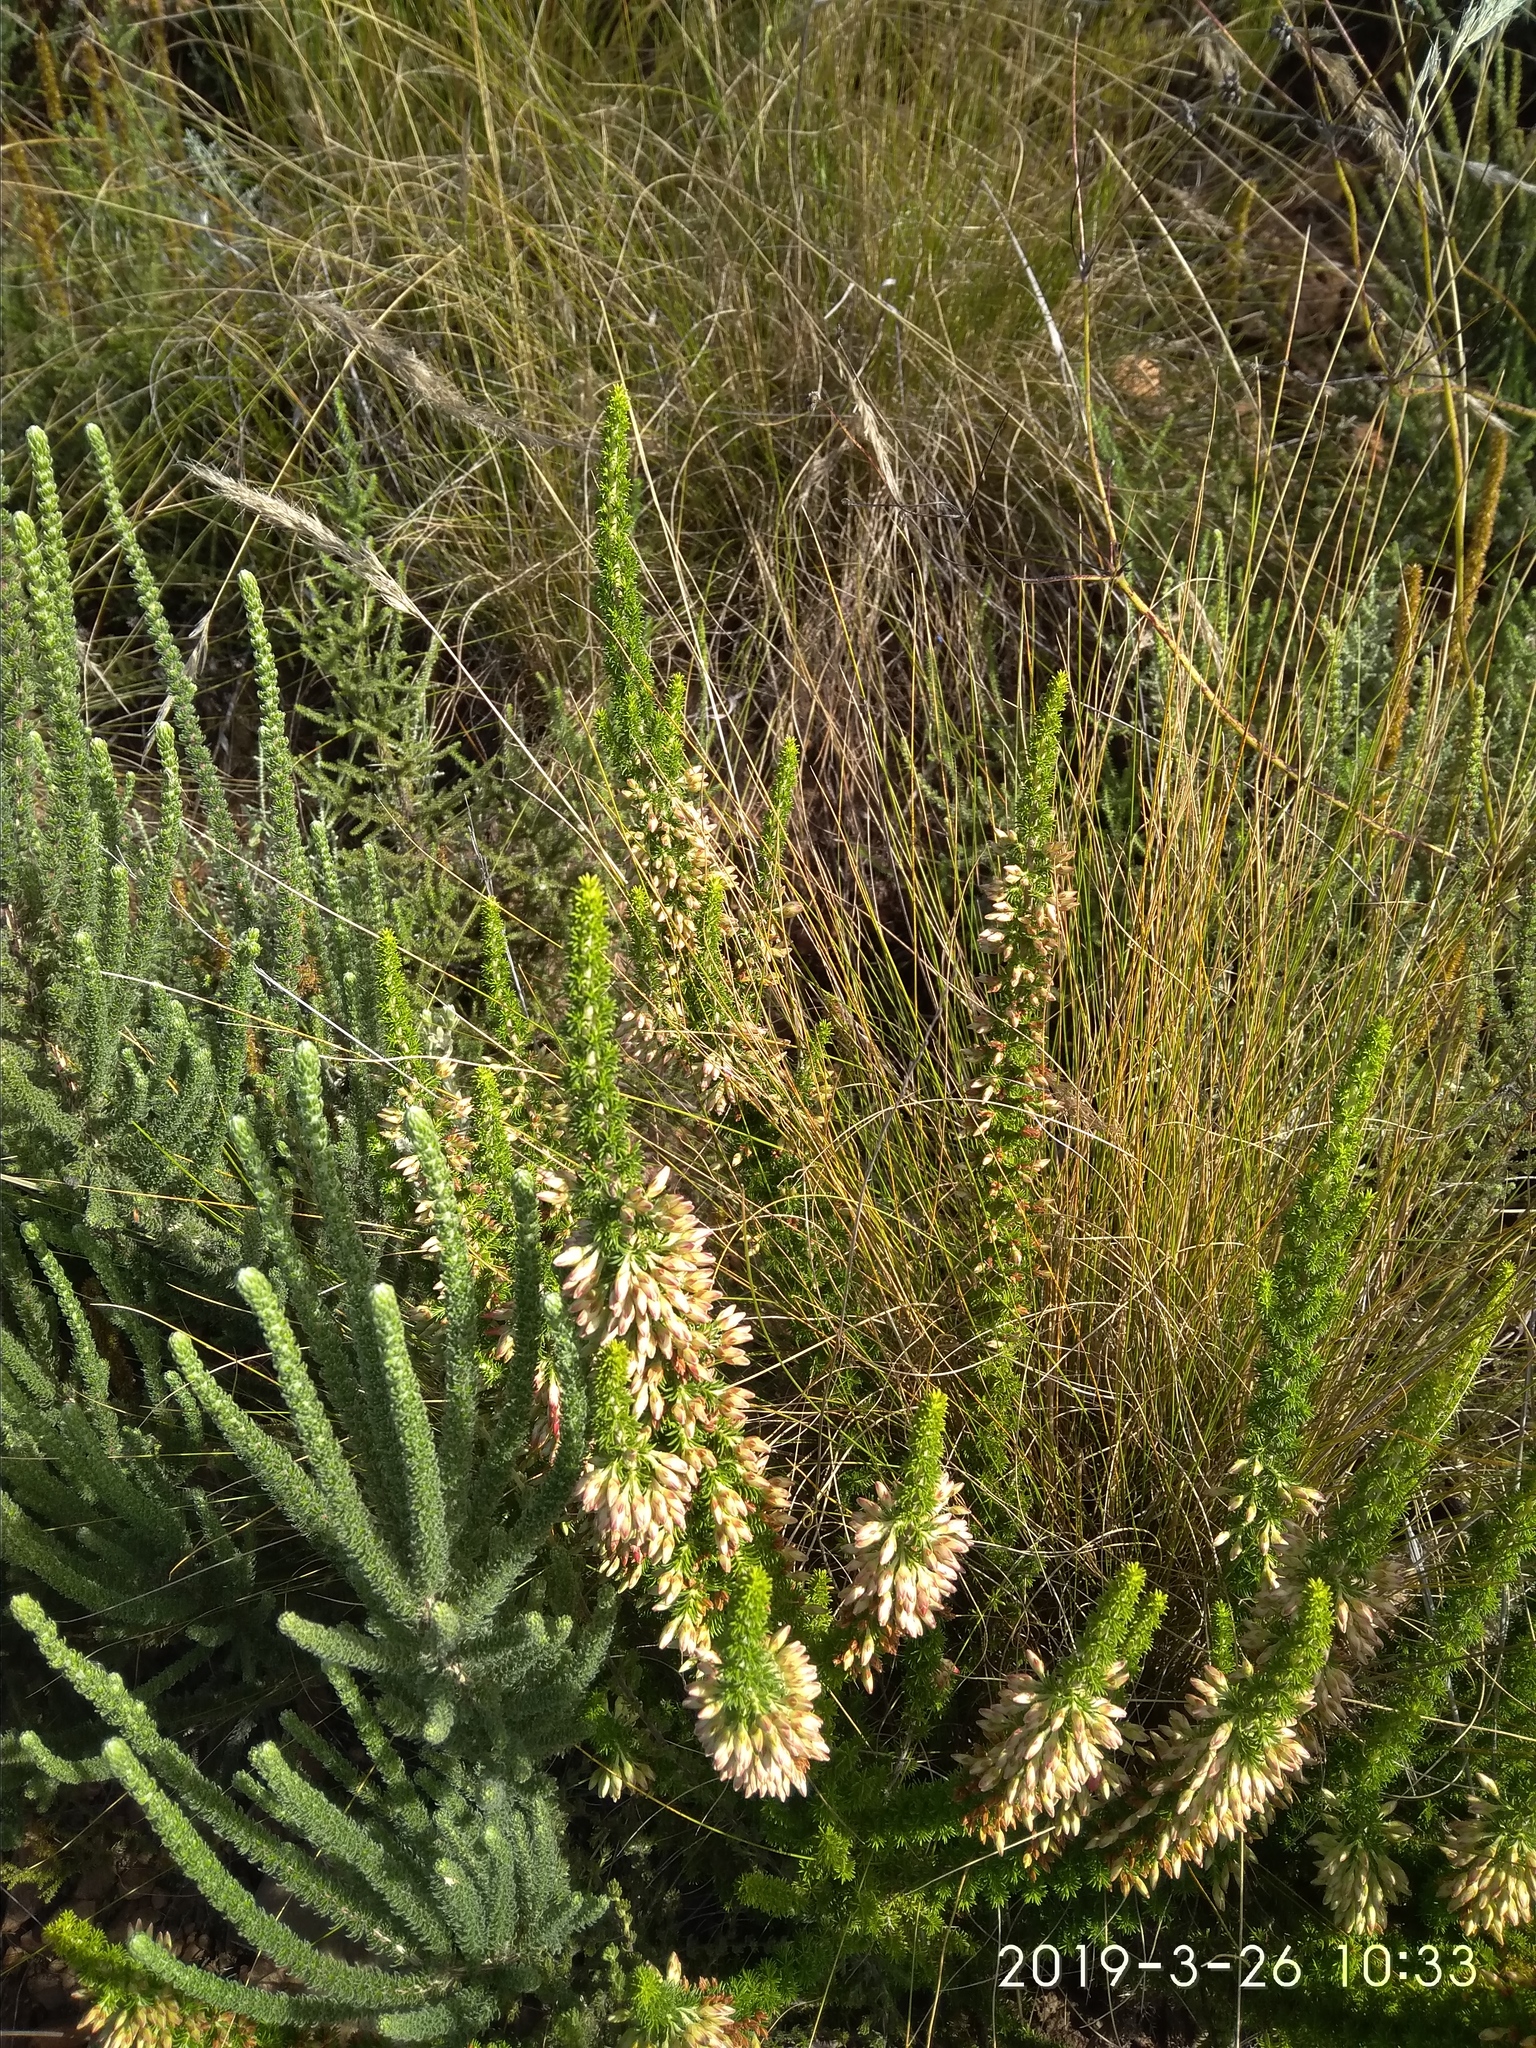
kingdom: Plantae
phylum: Tracheophyta
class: Magnoliopsida
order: Ericales
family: Ericaceae
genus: Erica
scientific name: Erica coccinea
